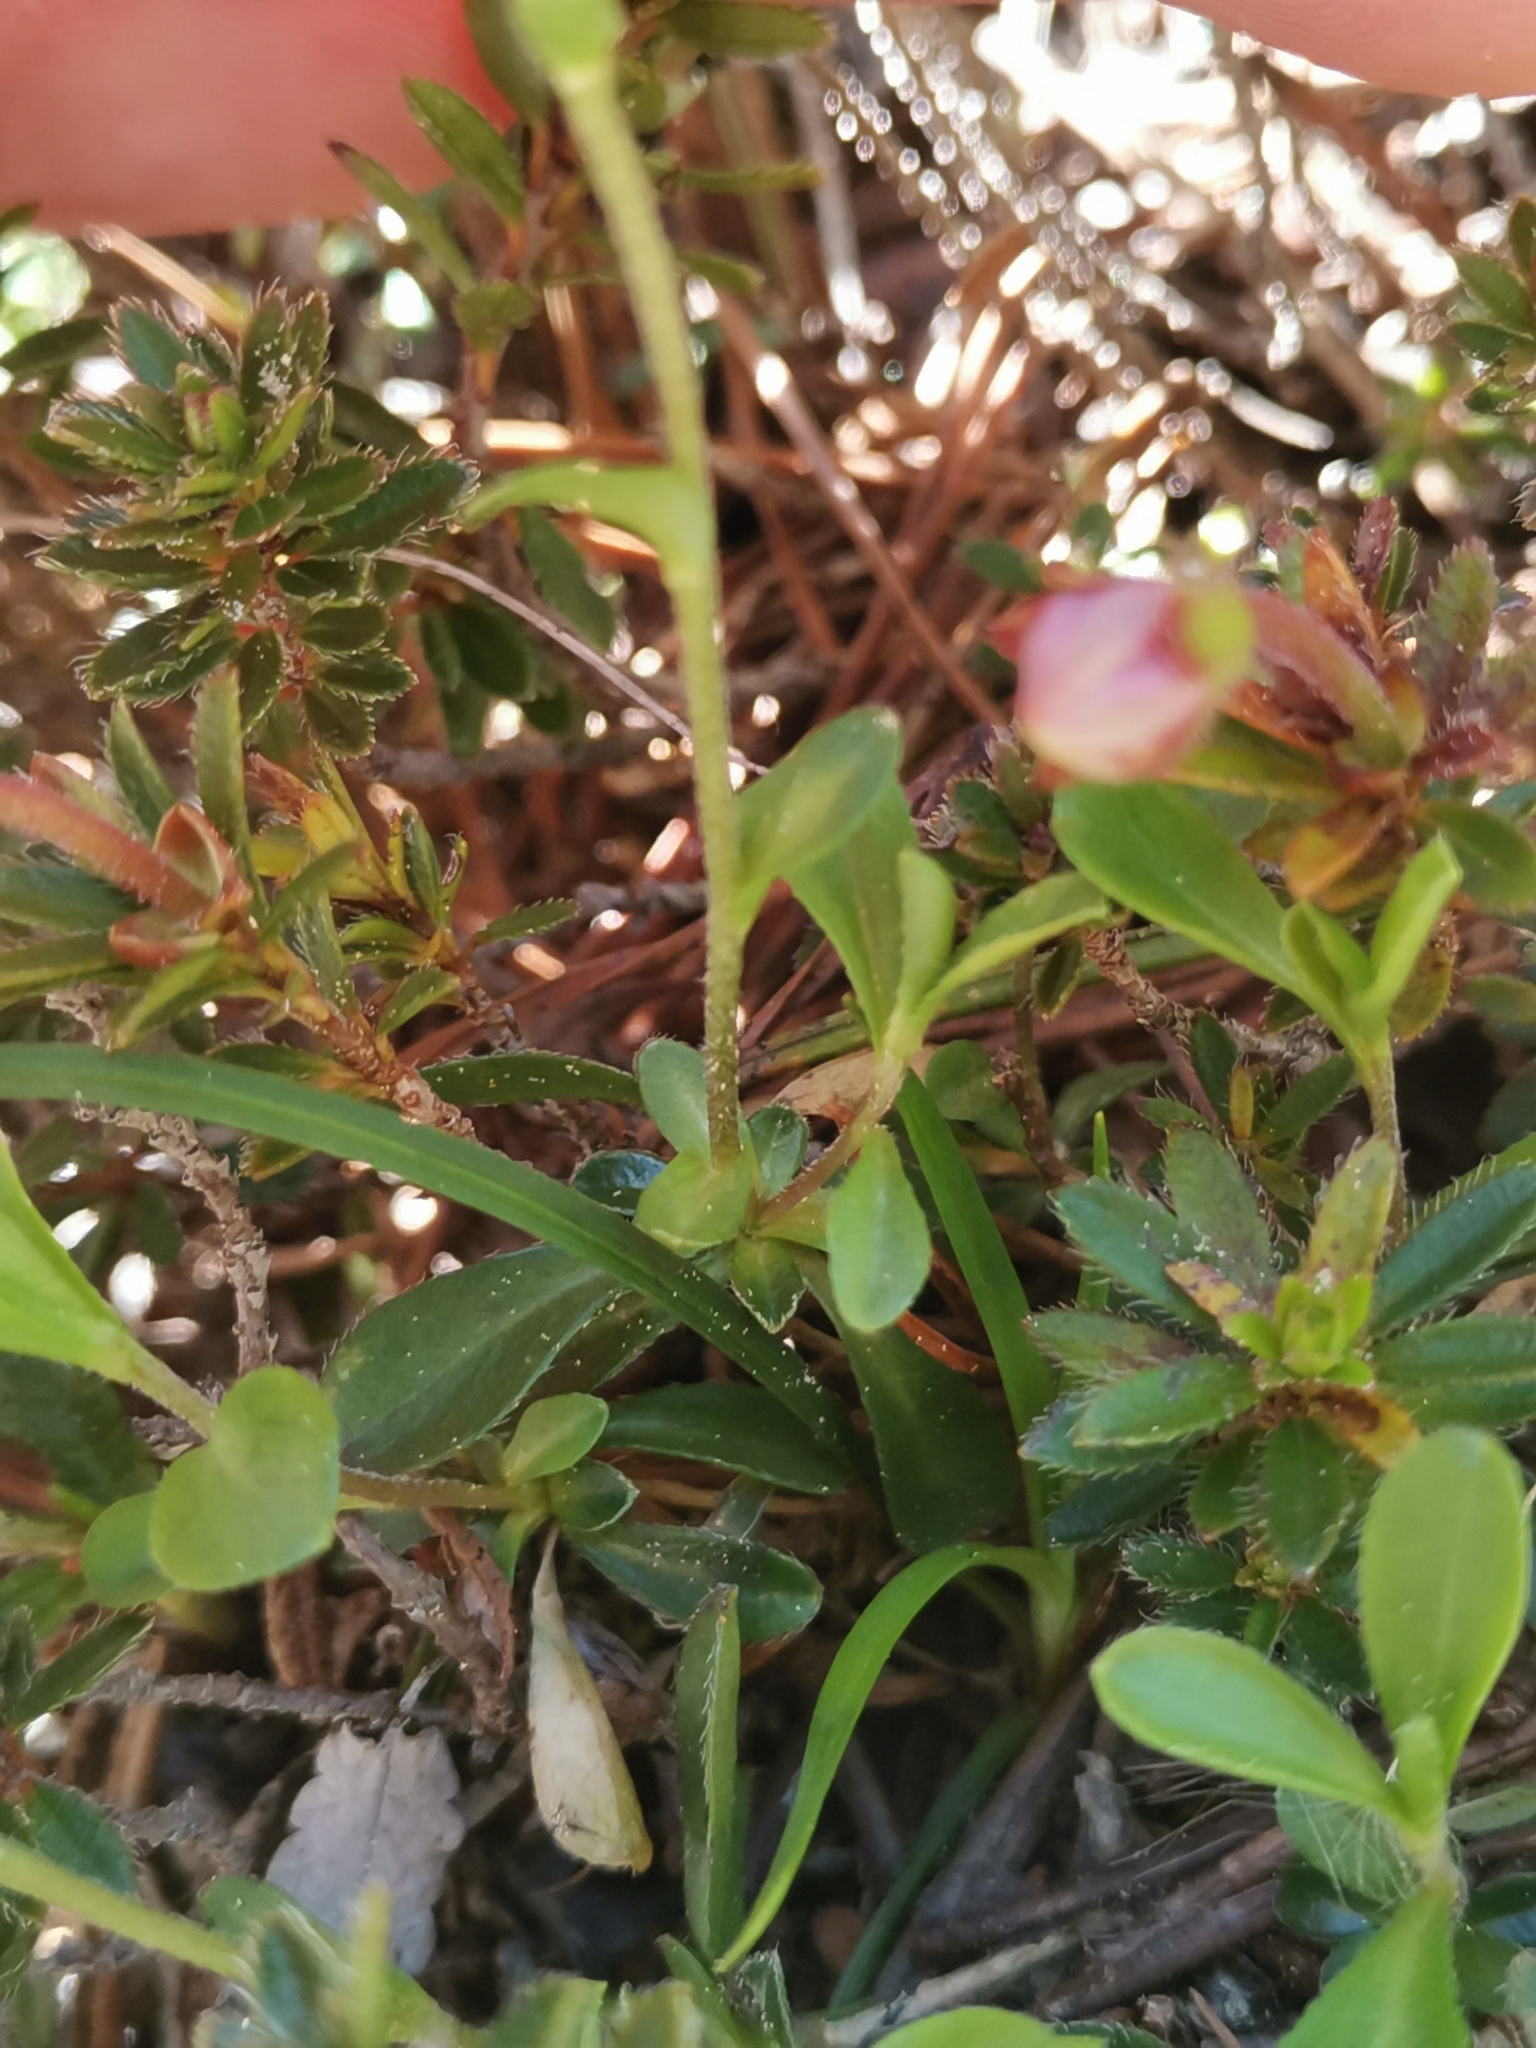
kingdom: Plantae
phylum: Tracheophyta
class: Magnoliopsida
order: Brassicales
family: Brassicaceae
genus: Arabis
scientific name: Arabis vochinensis
